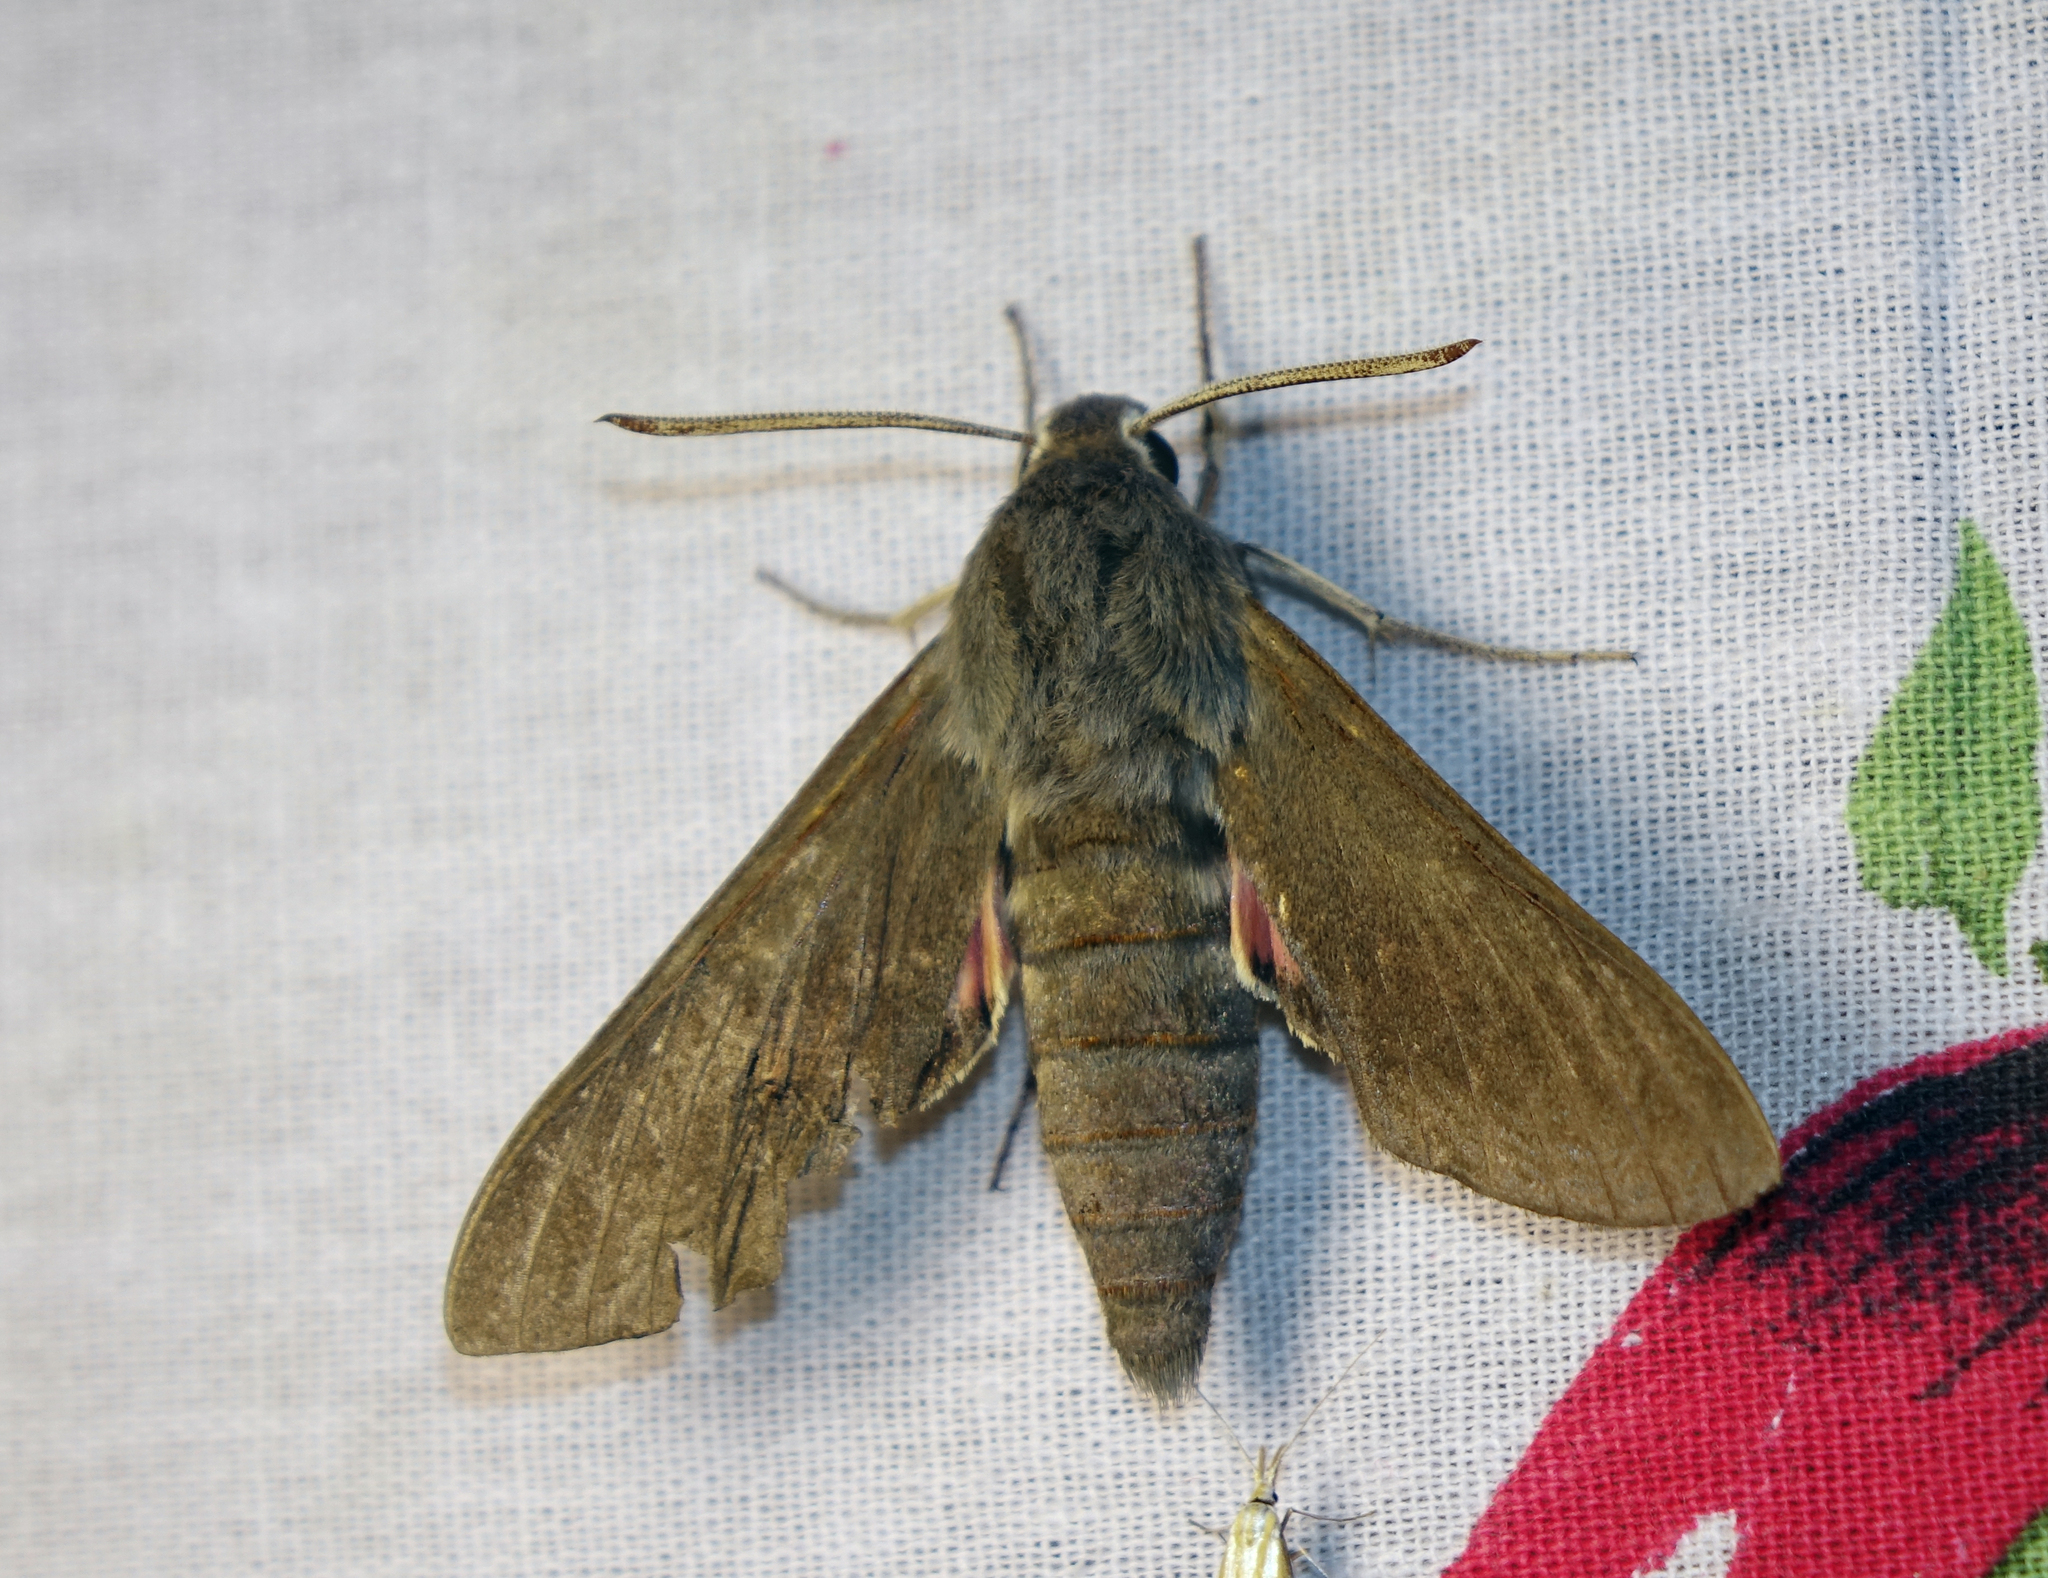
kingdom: Animalia
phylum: Arthropoda
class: Insecta
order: Lepidoptera
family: Sphingidae
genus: Hyles
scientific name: Hyles vespertilio
